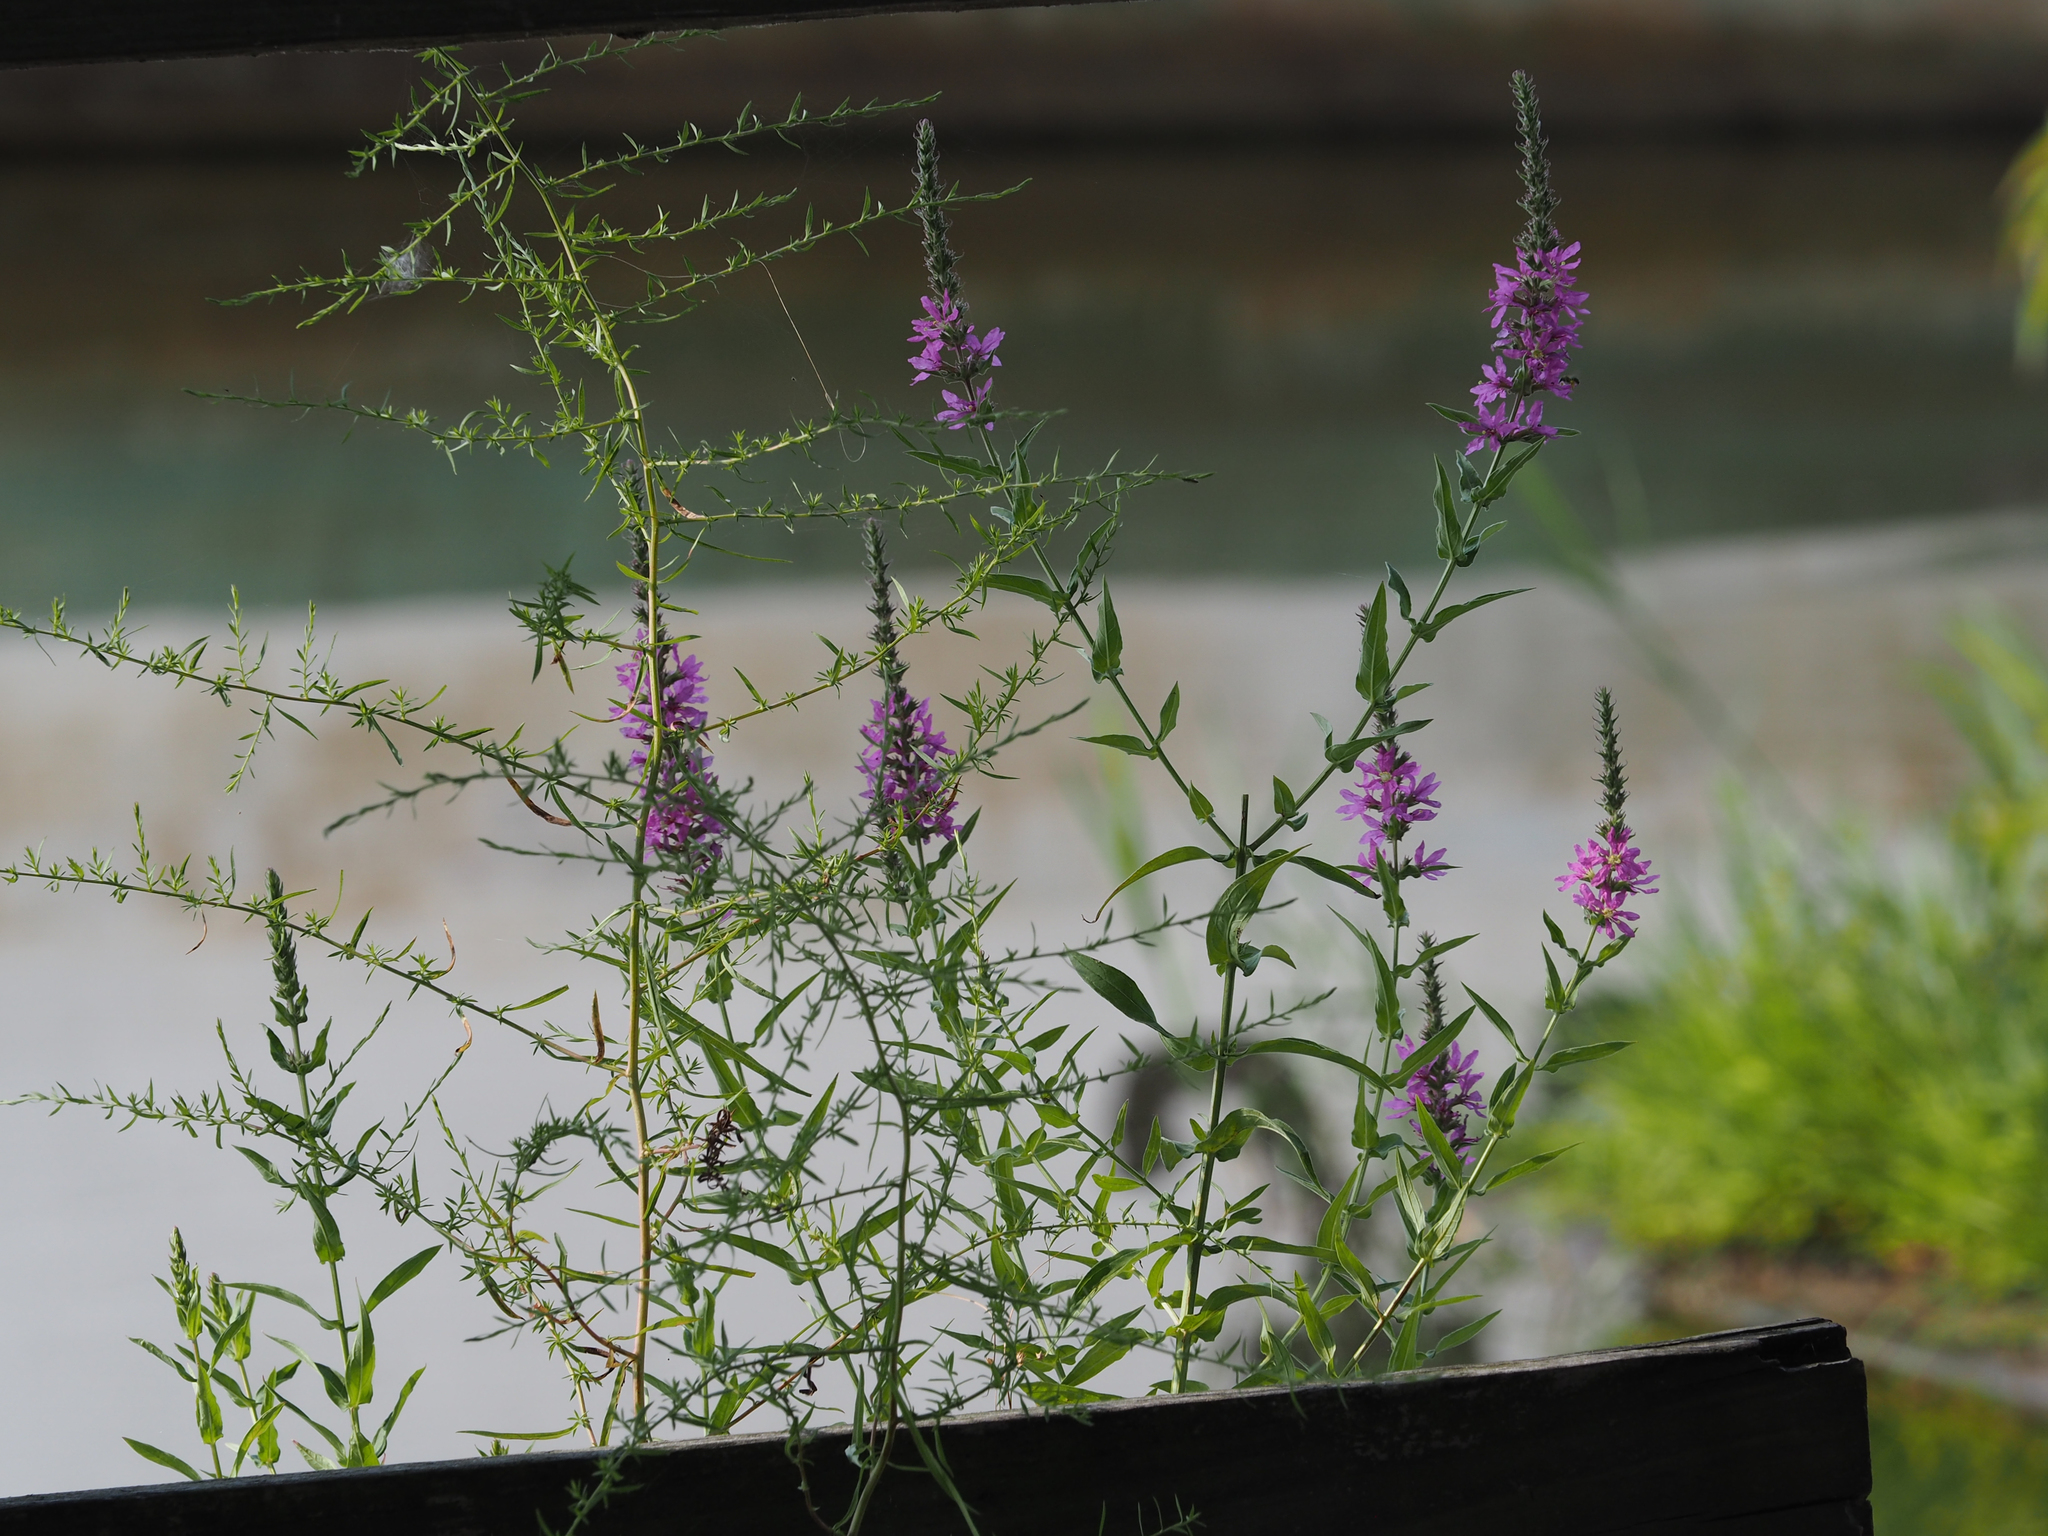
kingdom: Plantae
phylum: Tracheophyta
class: Magnoliopsida
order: Myrtales
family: Lythraceae
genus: Lythrum
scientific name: Lythrum salicaria
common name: Purple loosestrife
